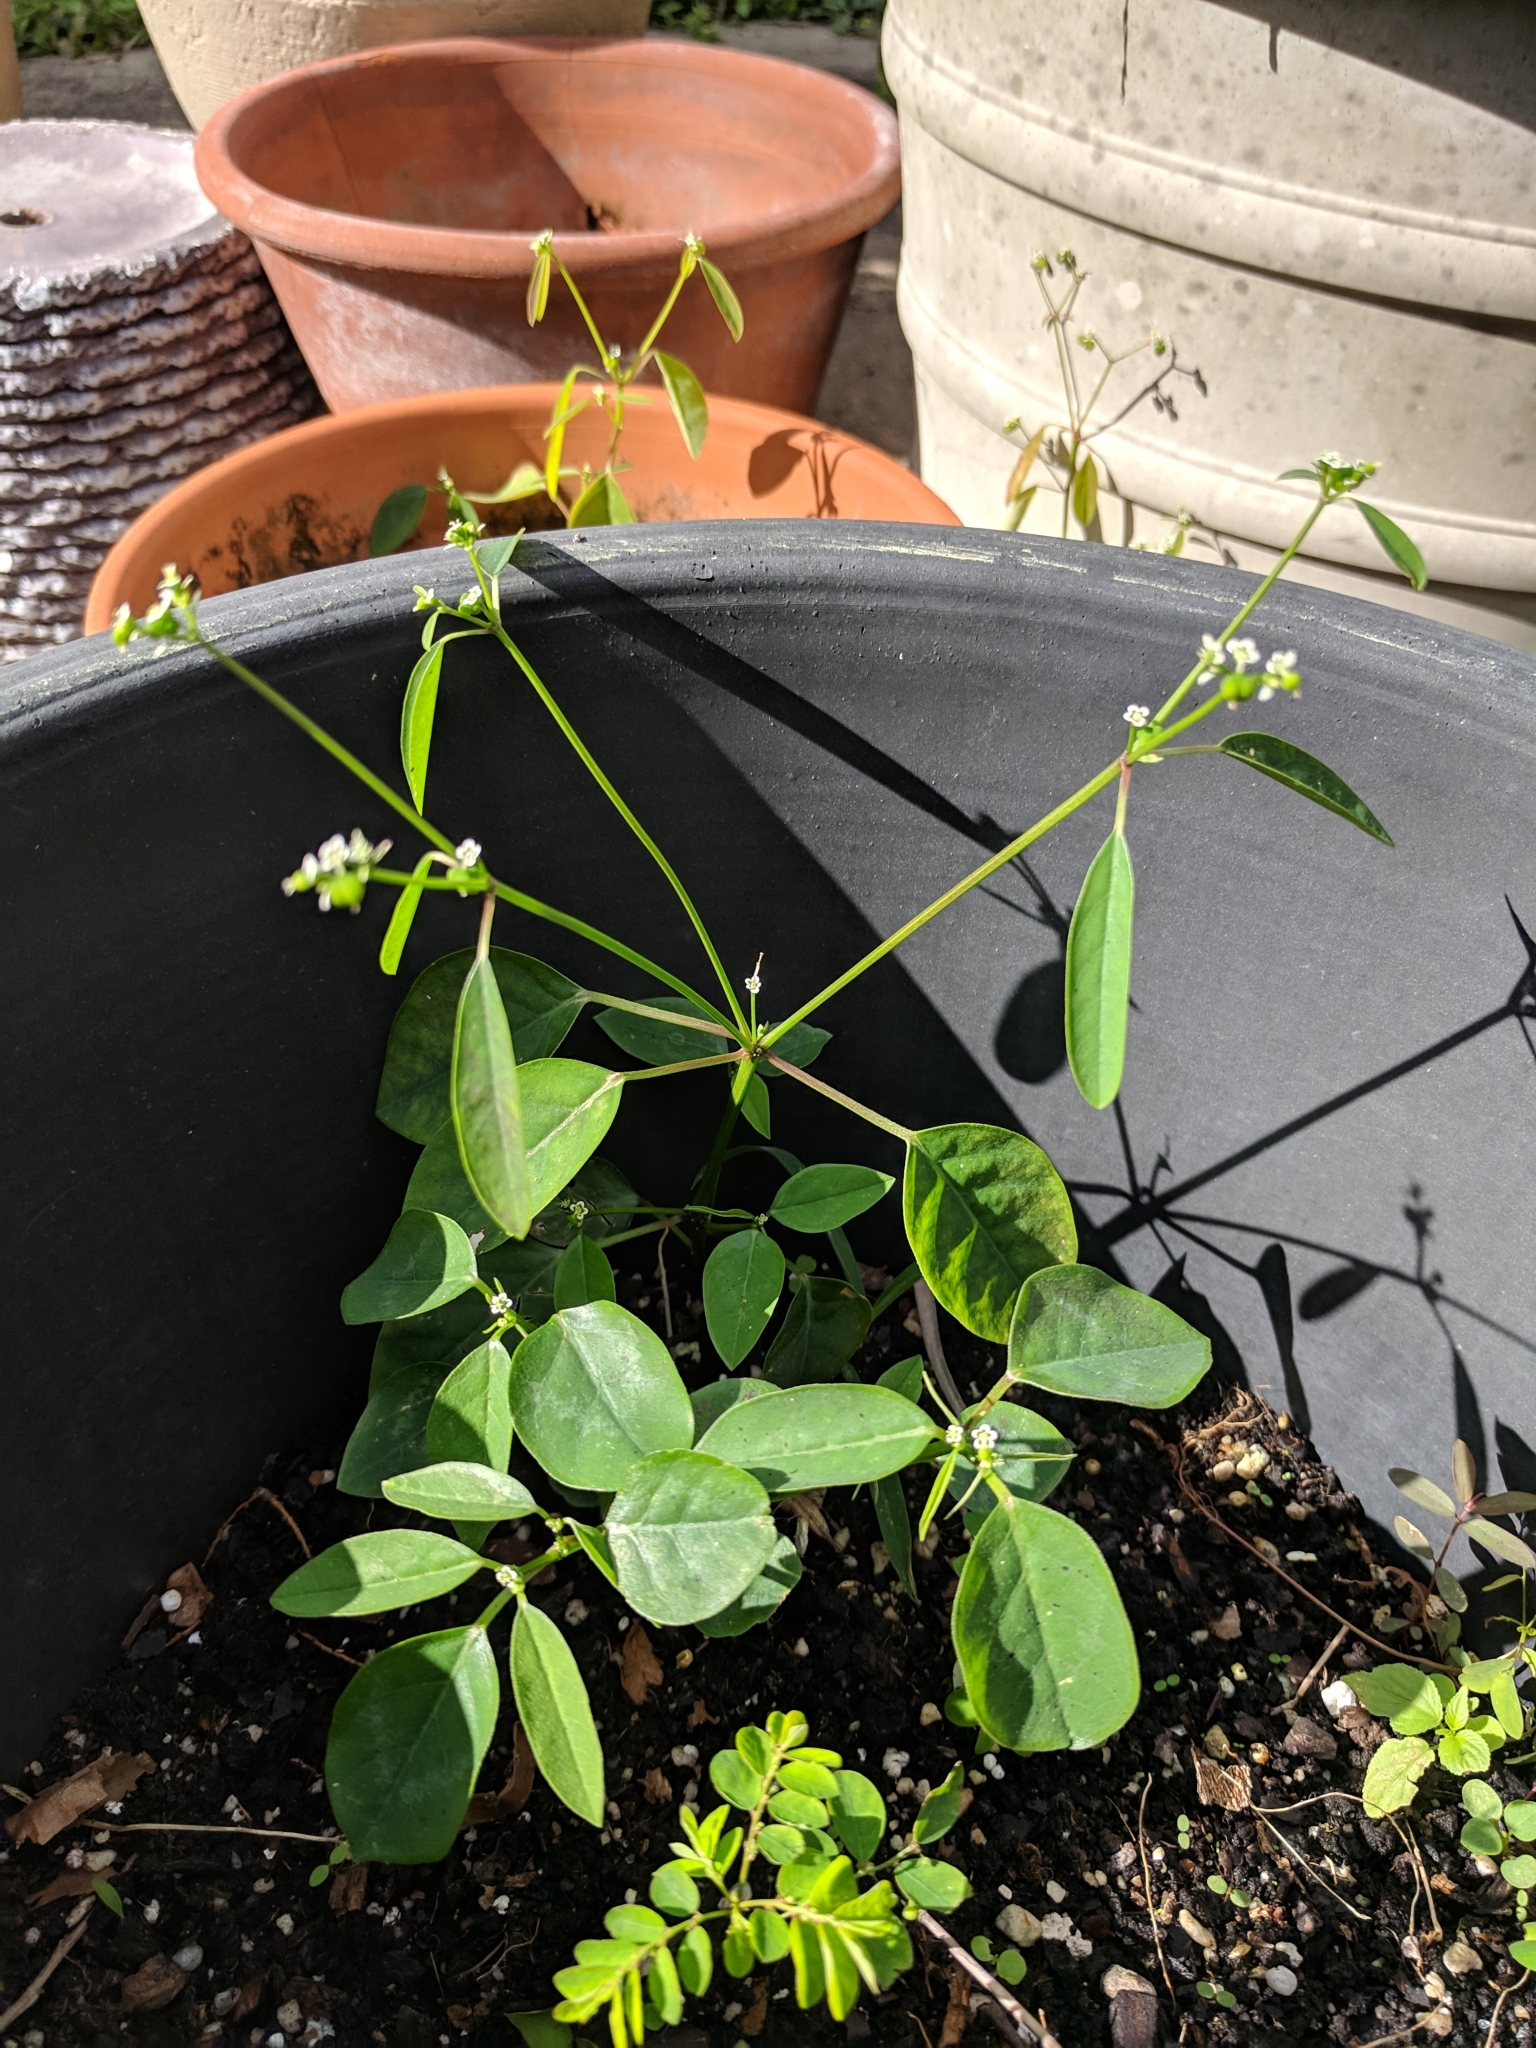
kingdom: Plantae
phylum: Tracheophyta
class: Magnoliopsida
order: Malpighiales
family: Euphorbiaceae
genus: Euphorbia
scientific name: Euphorbia graminea
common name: Grassleaf spurge
